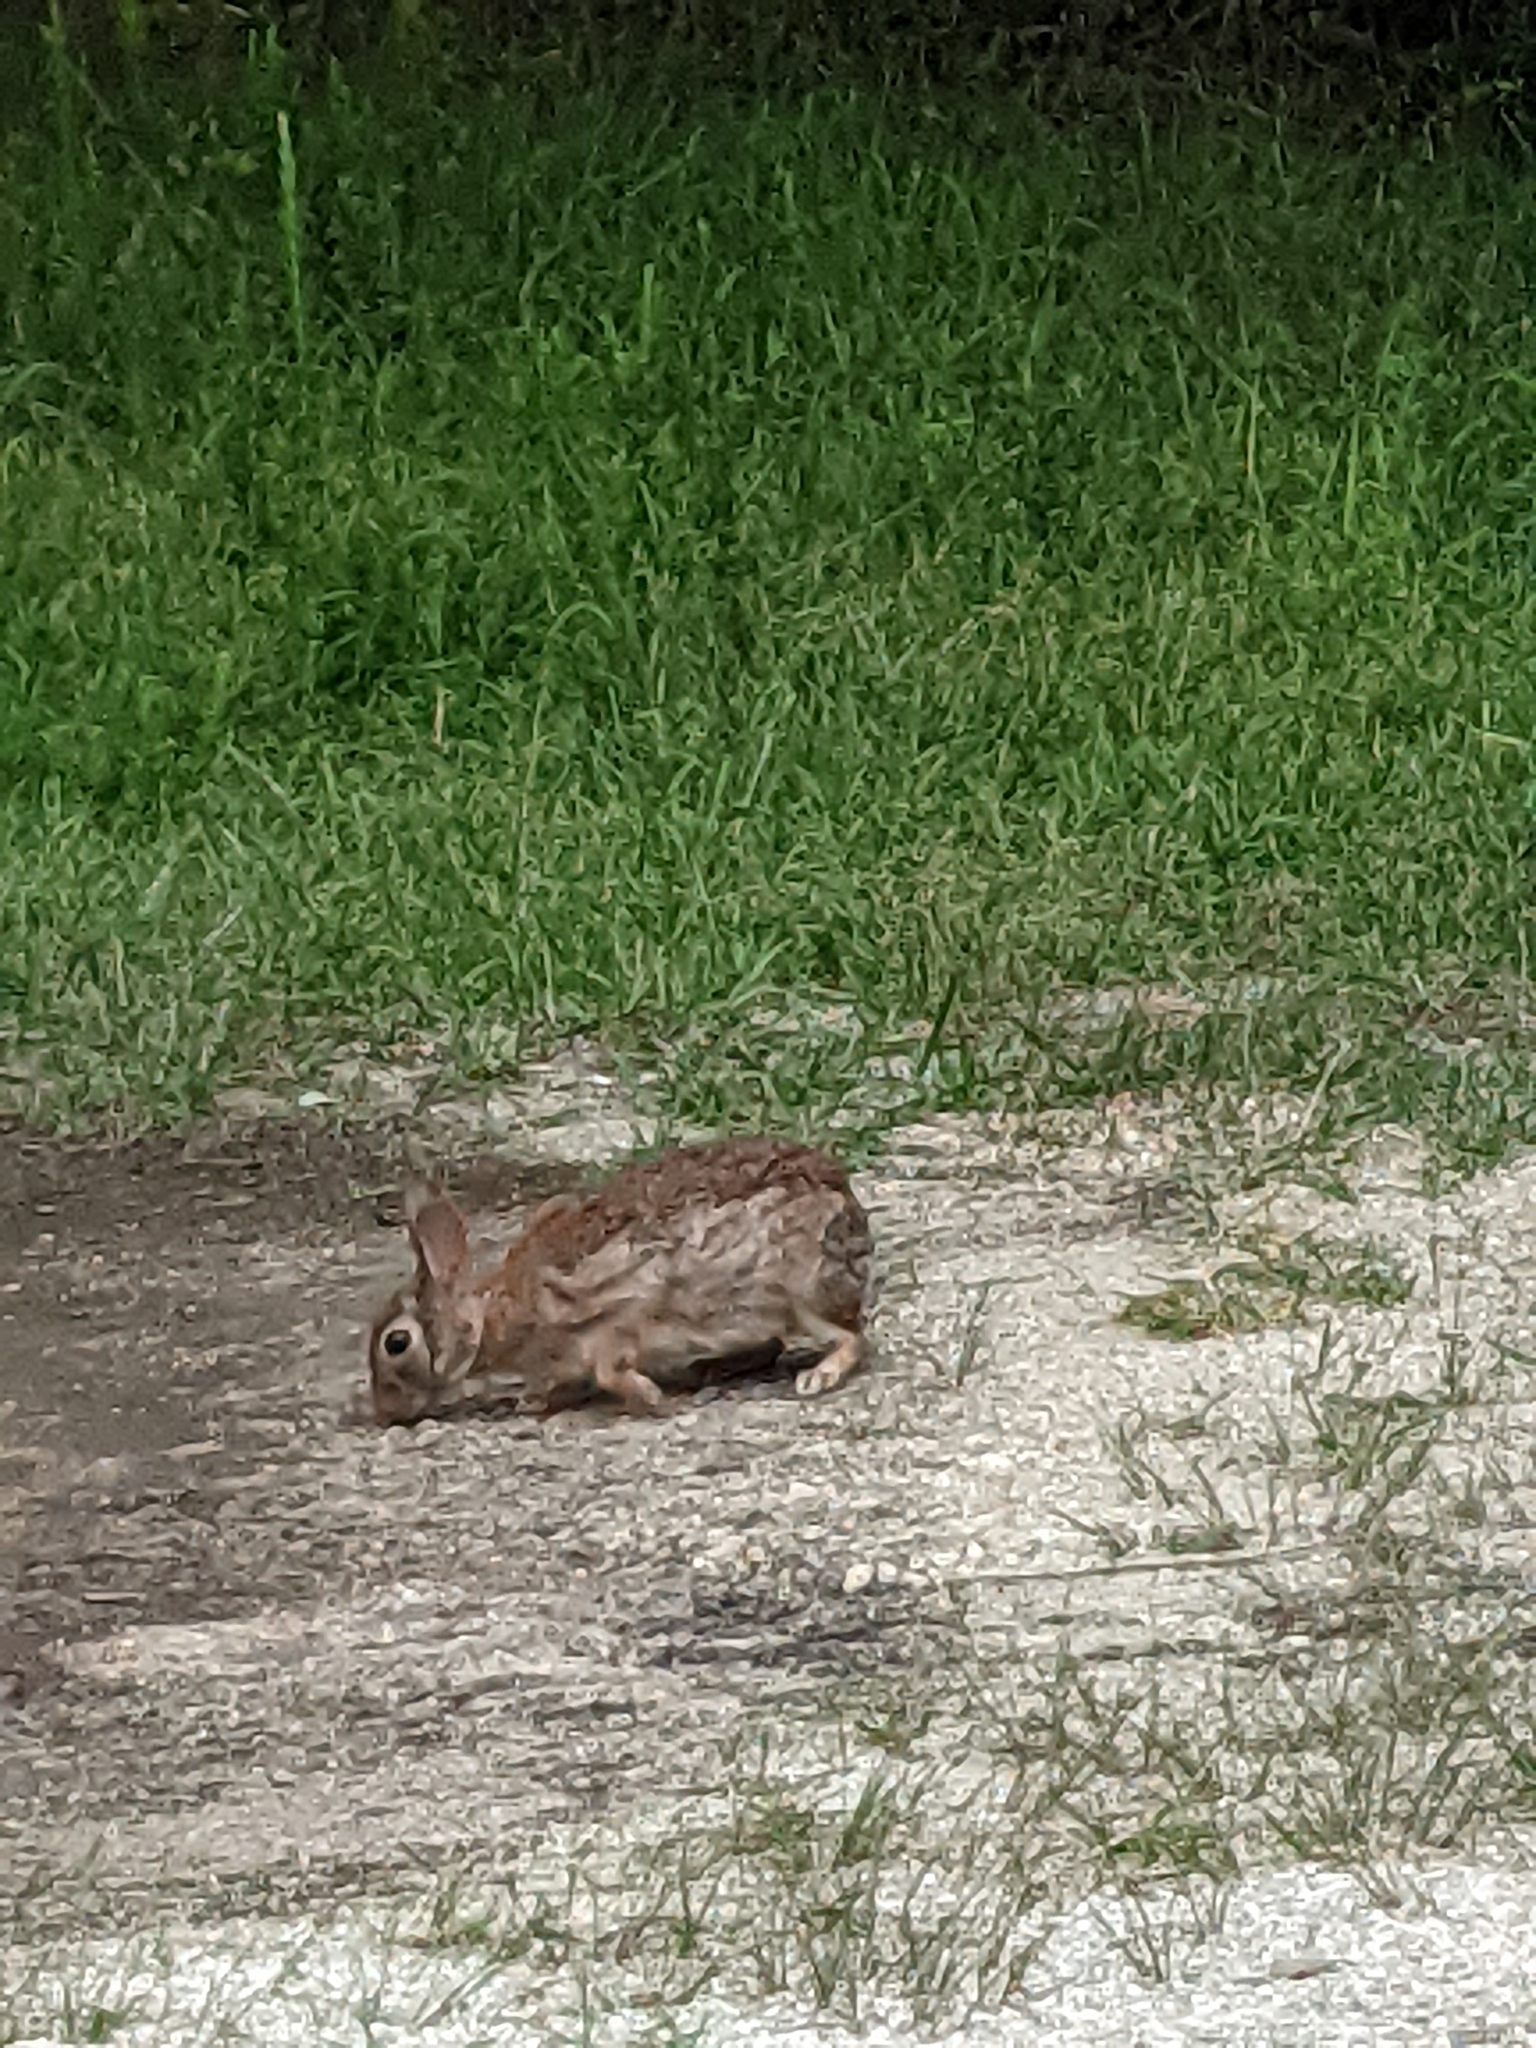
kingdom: Animalia
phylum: Chordata
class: Mammalia
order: Lagomorpha
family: Leporidae
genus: Sylvilagus
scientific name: Sylvilagus floridanus
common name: Eastern cottontail
